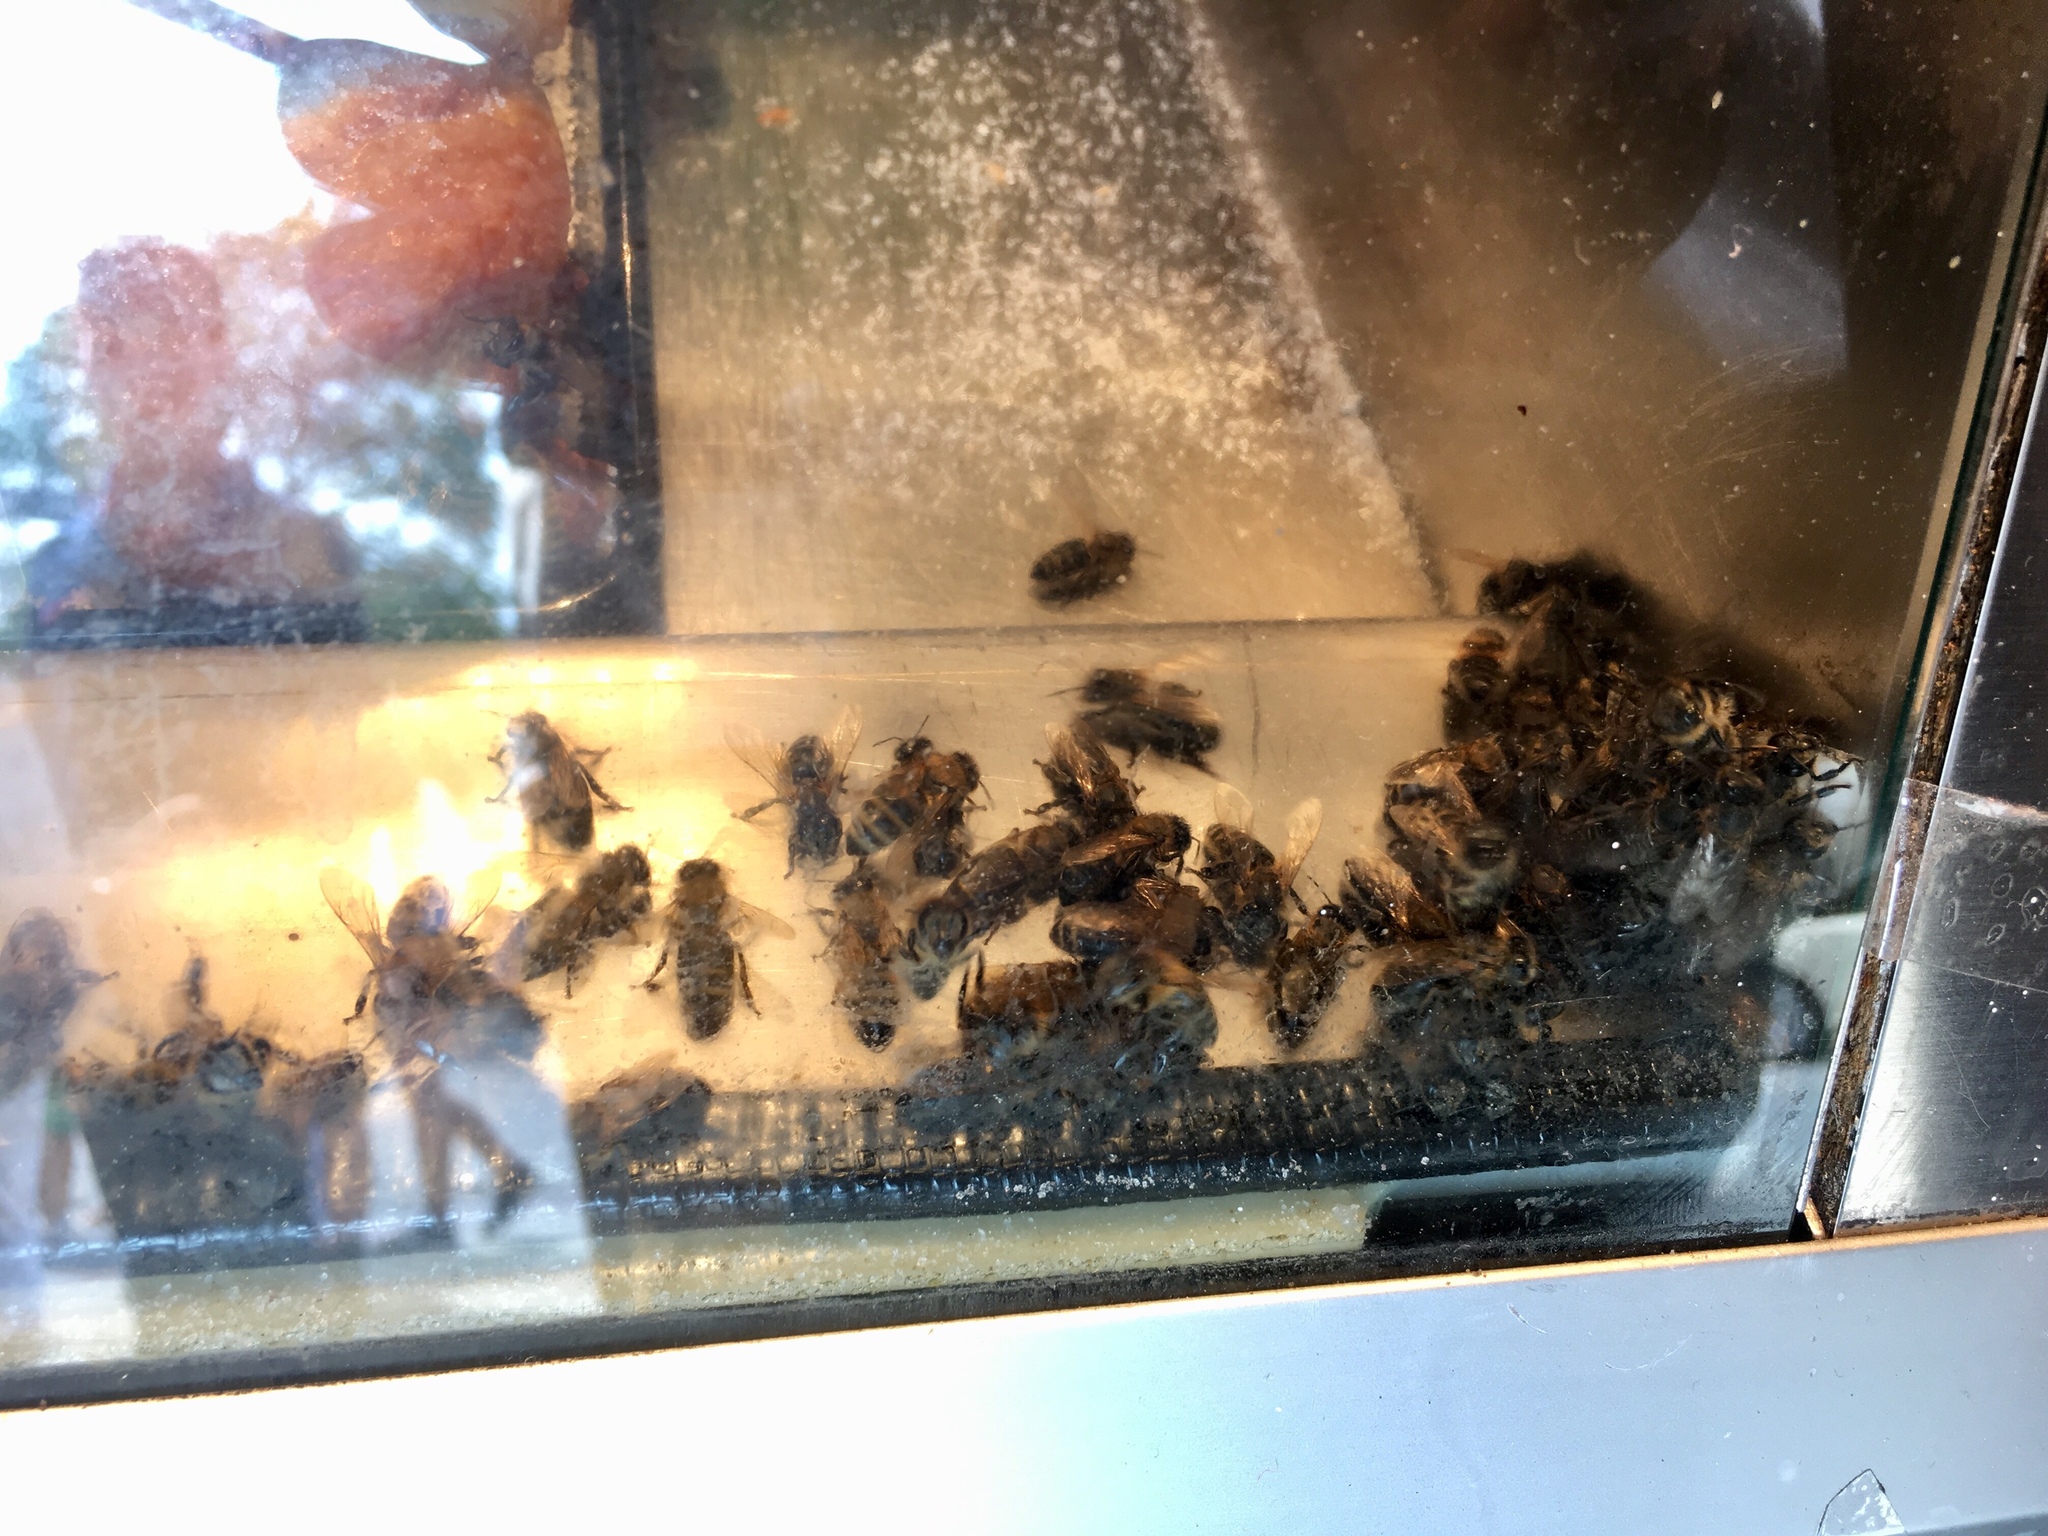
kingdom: Animalia
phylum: Arthropoda
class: Insecta
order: Hymenoptera
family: Apidae
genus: Apis
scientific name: Apis mellifera
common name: Honey bee
